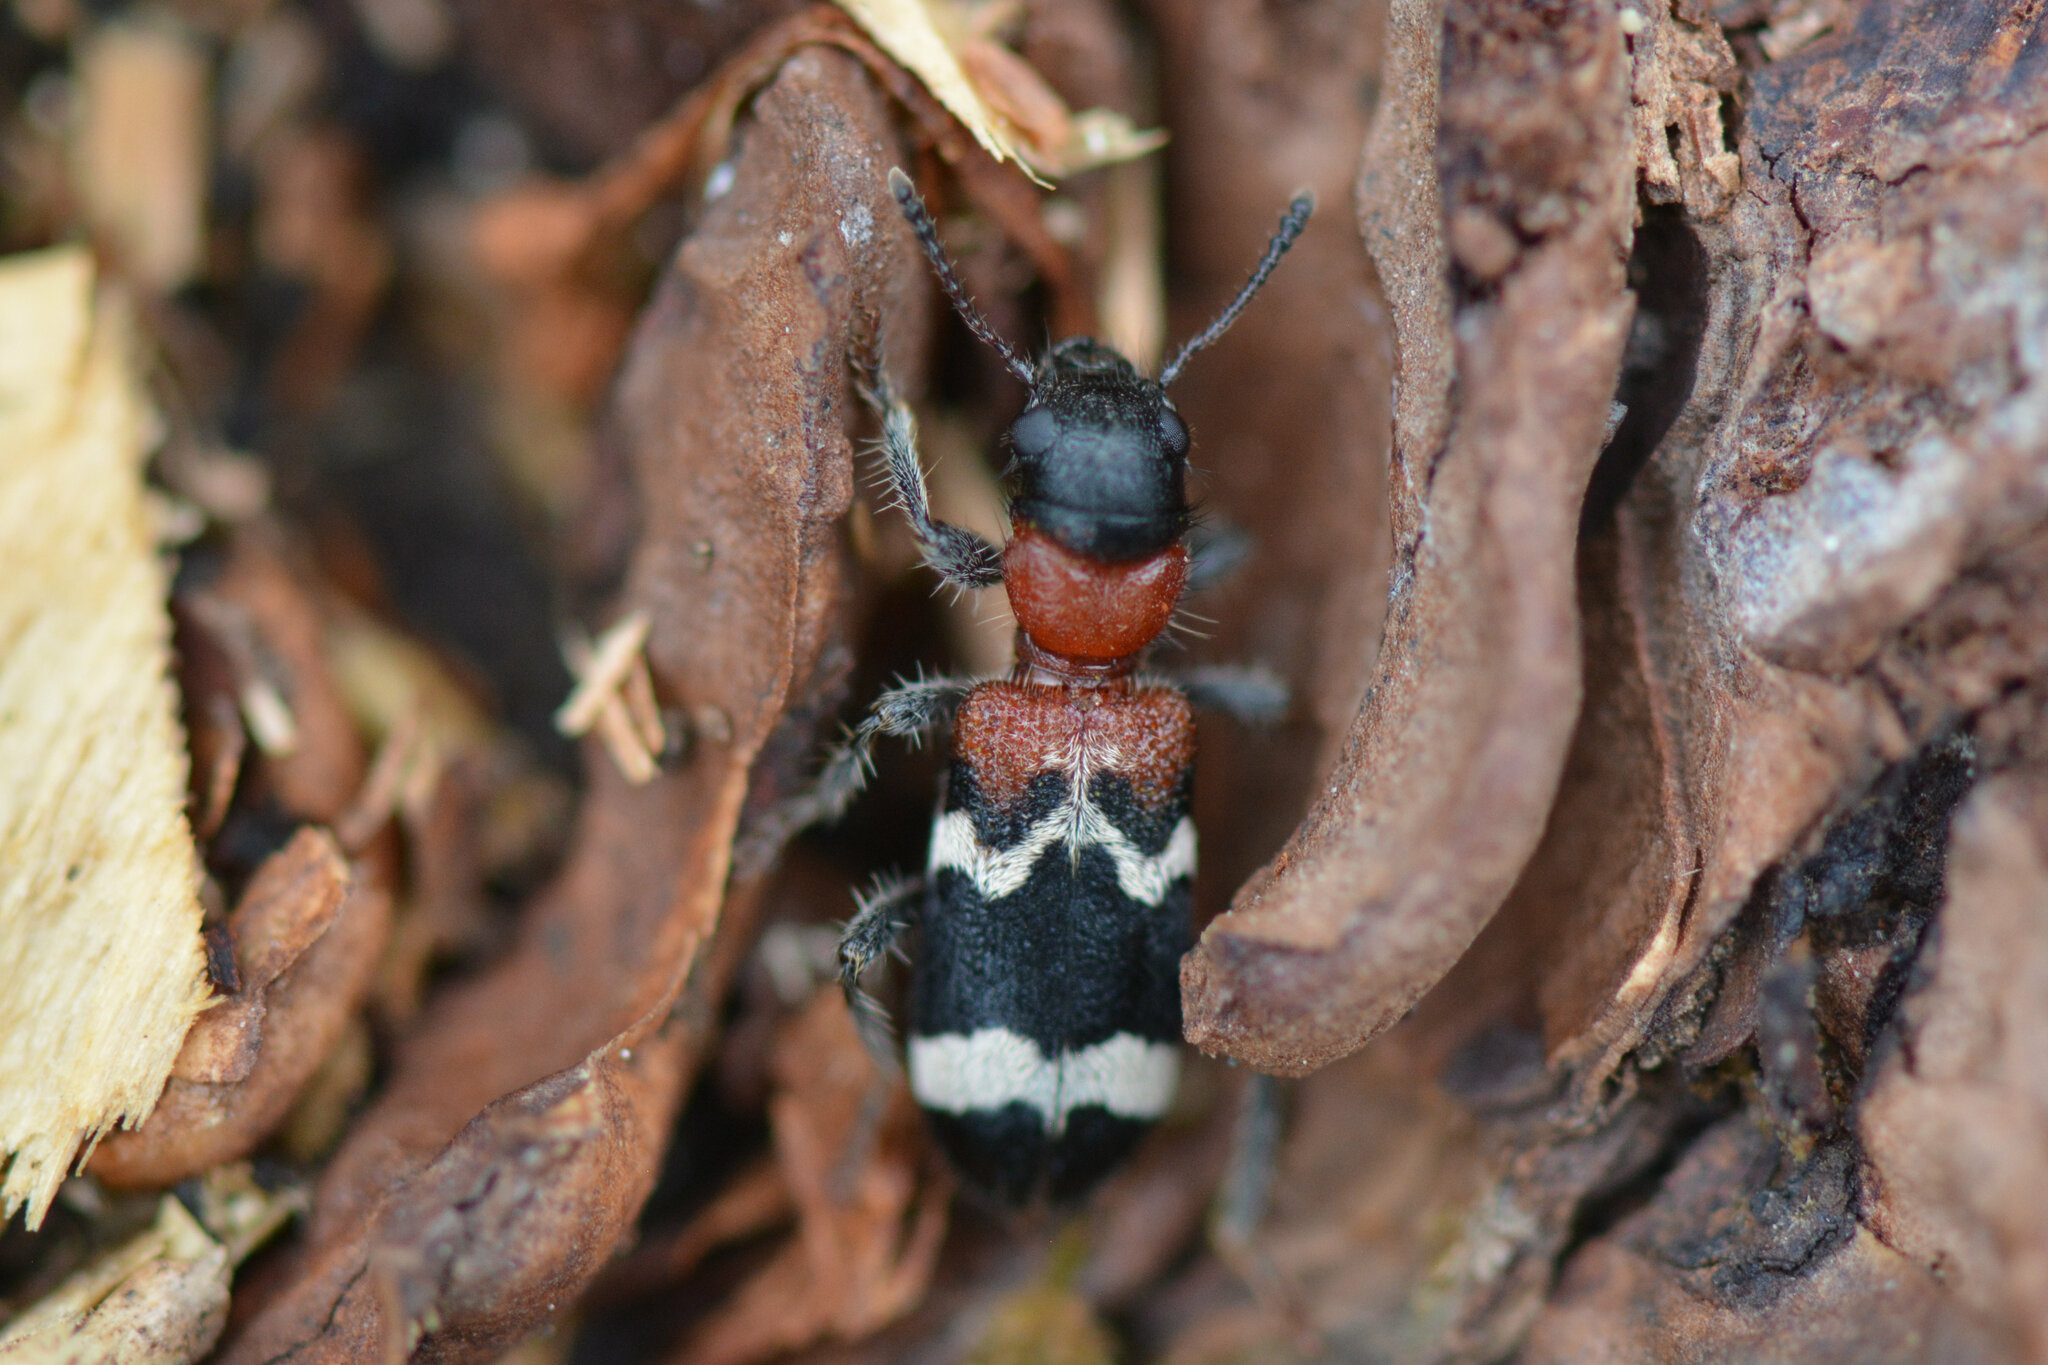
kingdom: Animalia
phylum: Arthropoda
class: Insecta
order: Coleoptera
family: Cleridae
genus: Thanasimus
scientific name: Thanasimus formicarius
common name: Ant beetle
